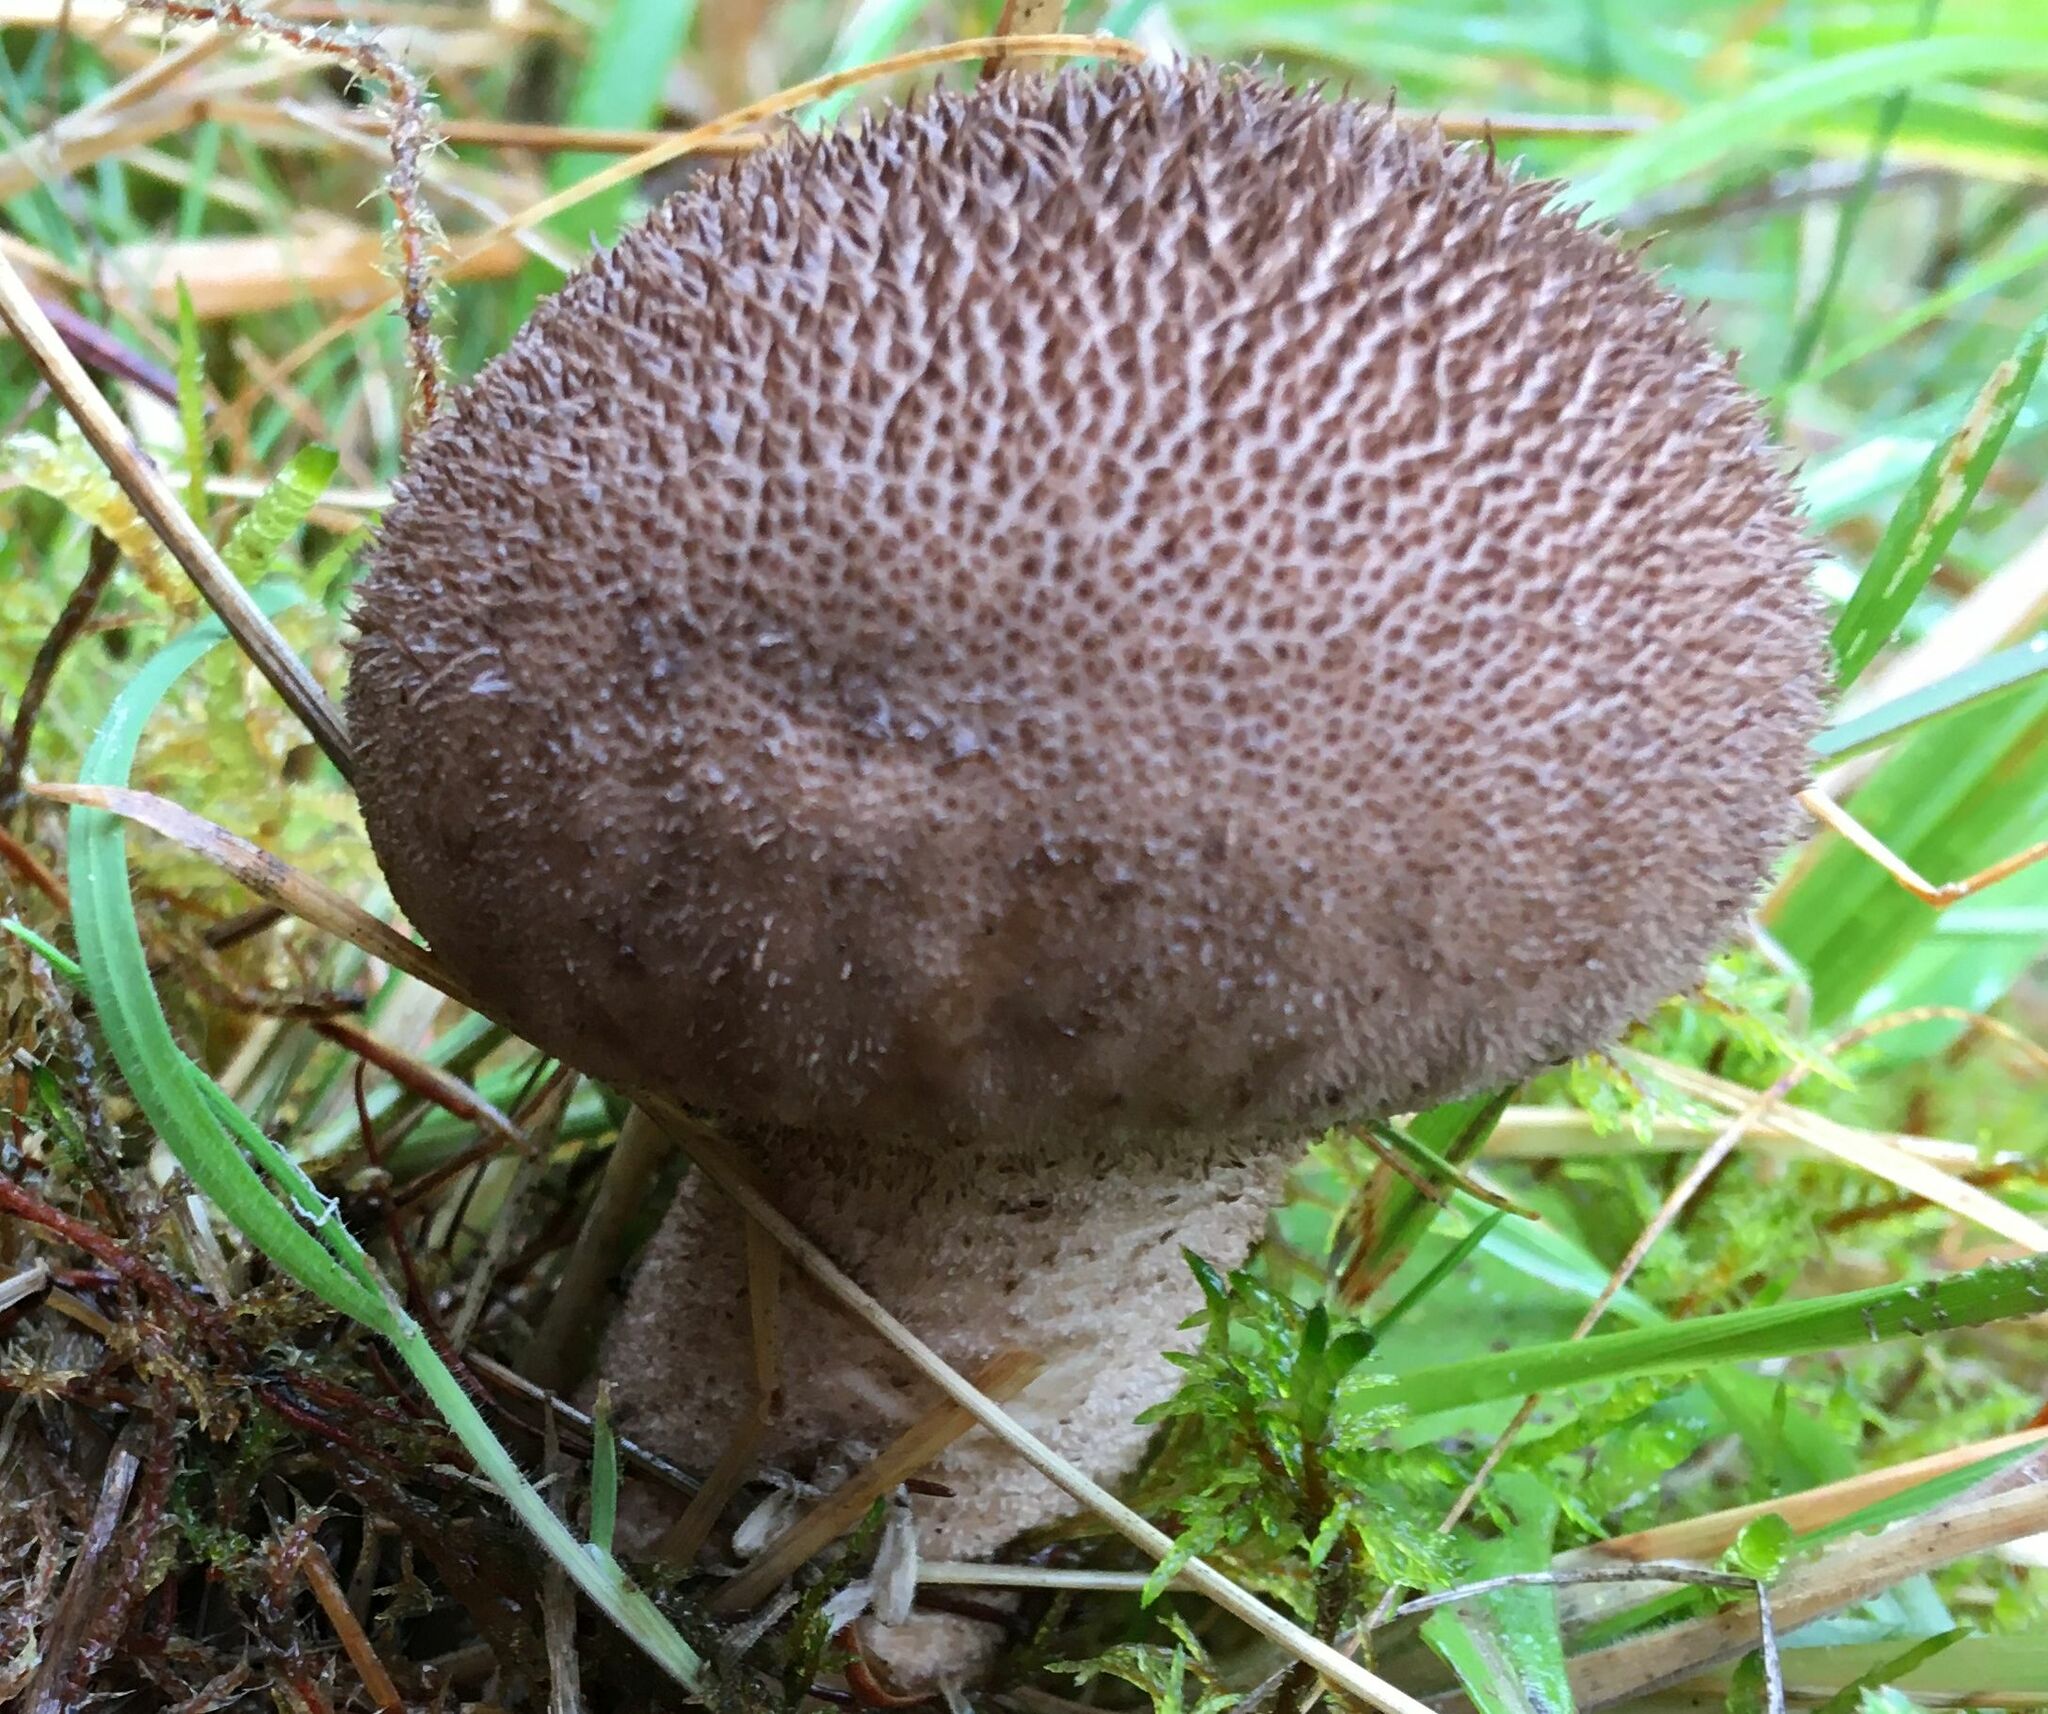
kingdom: Fungi
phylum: Basidiomycota
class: Agaricomycetes
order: Agaricales
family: Lycoperdaceae
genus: Lycoperdon
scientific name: Lycoperdon nigrescens
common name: Blackish puffball
